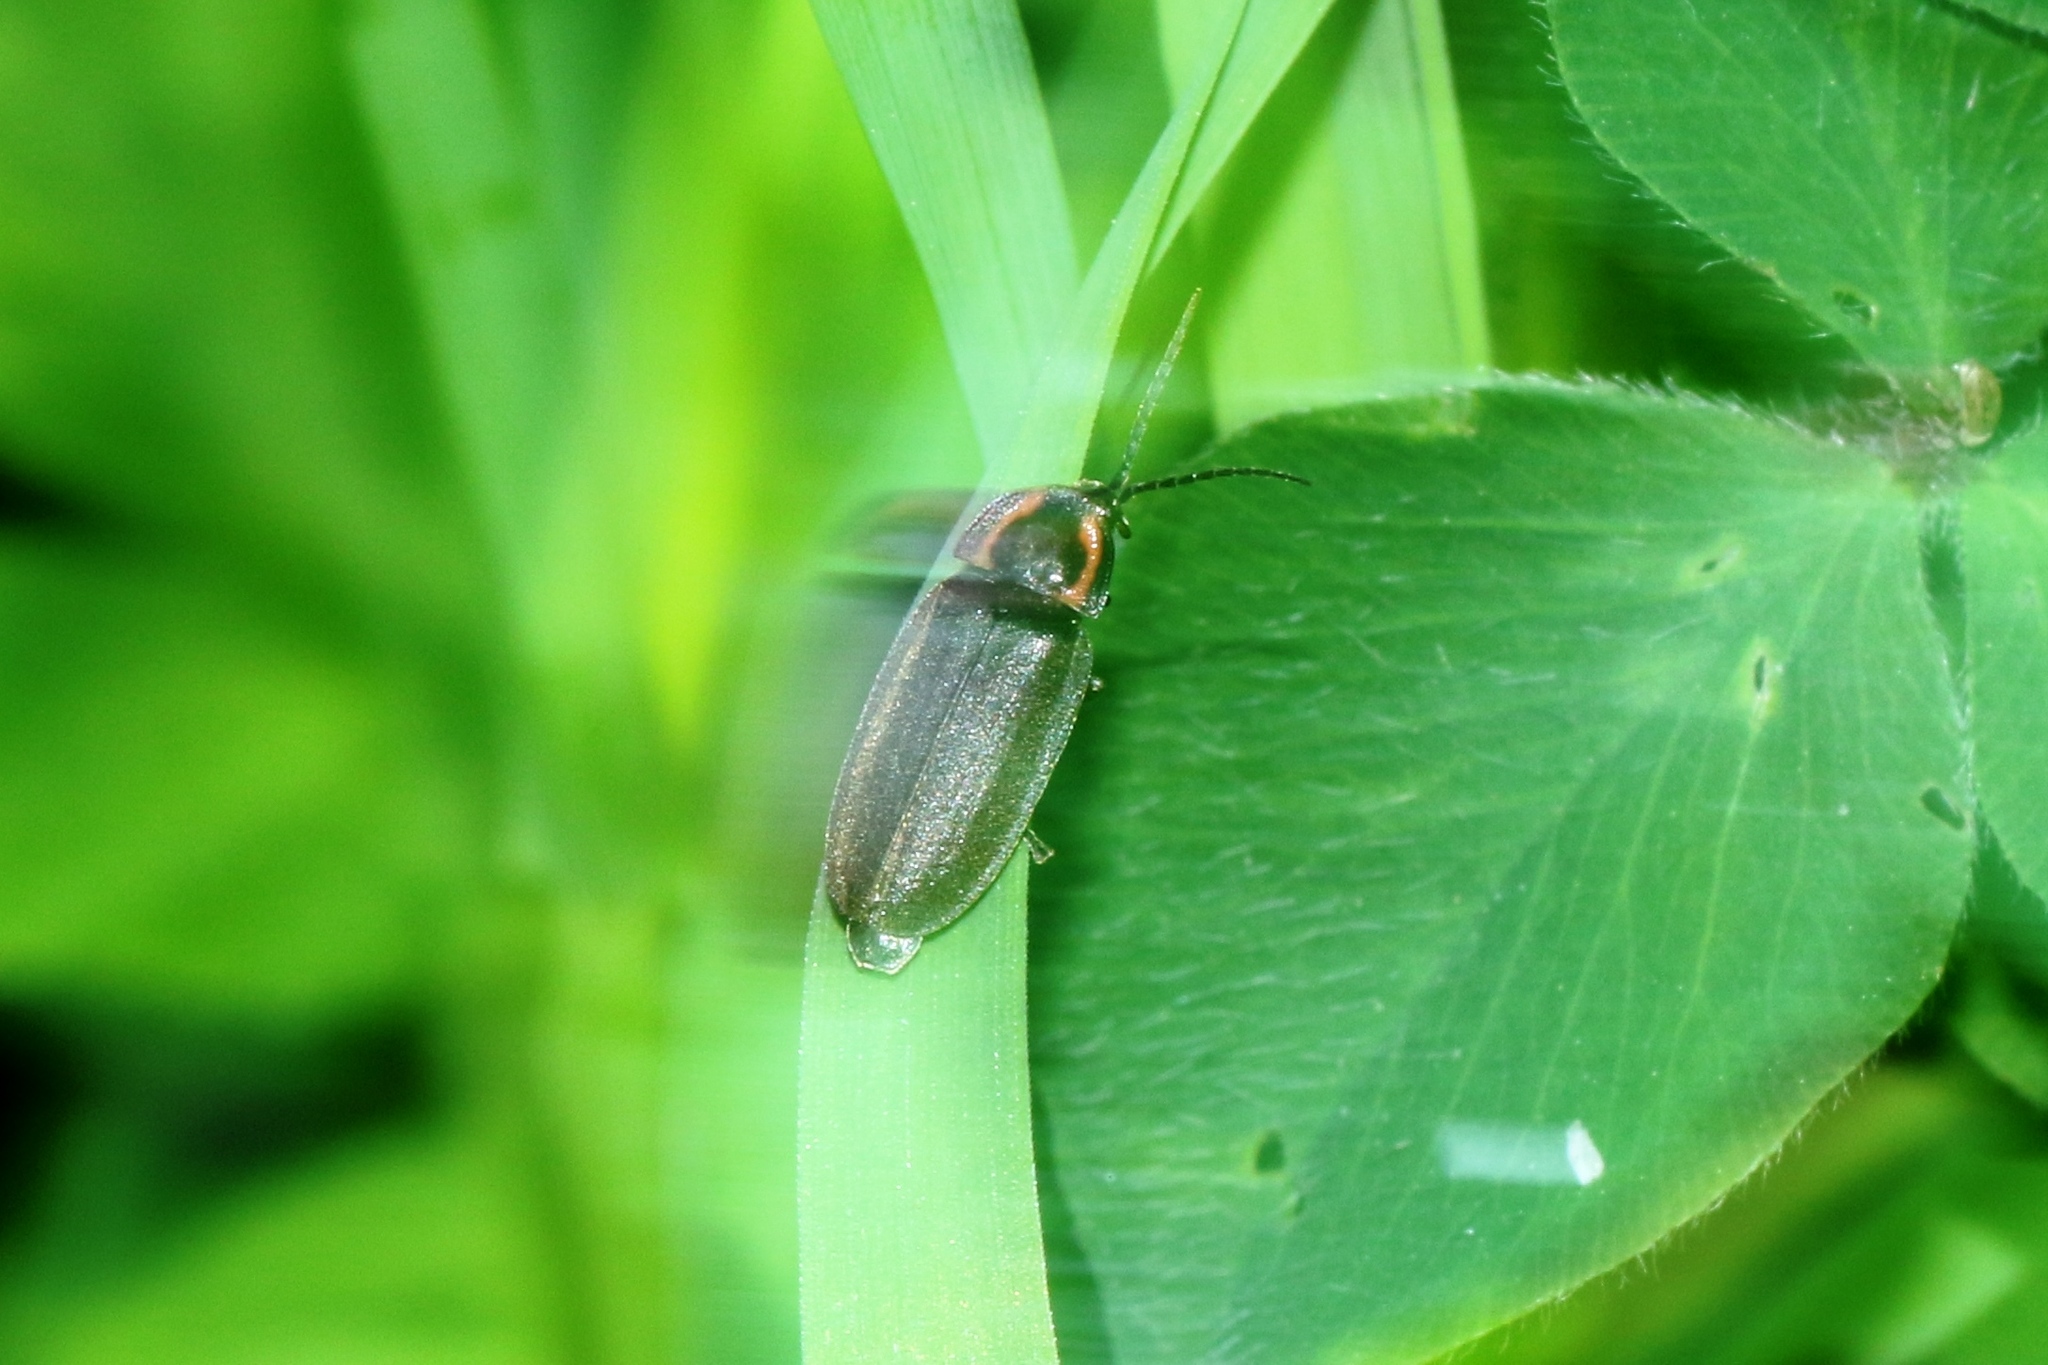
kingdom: Animalia
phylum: Arthropoda
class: Insecta
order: Coleoptera
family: Lampyridae
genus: Photinus
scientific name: Photinus corrusca
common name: Winter firefly
